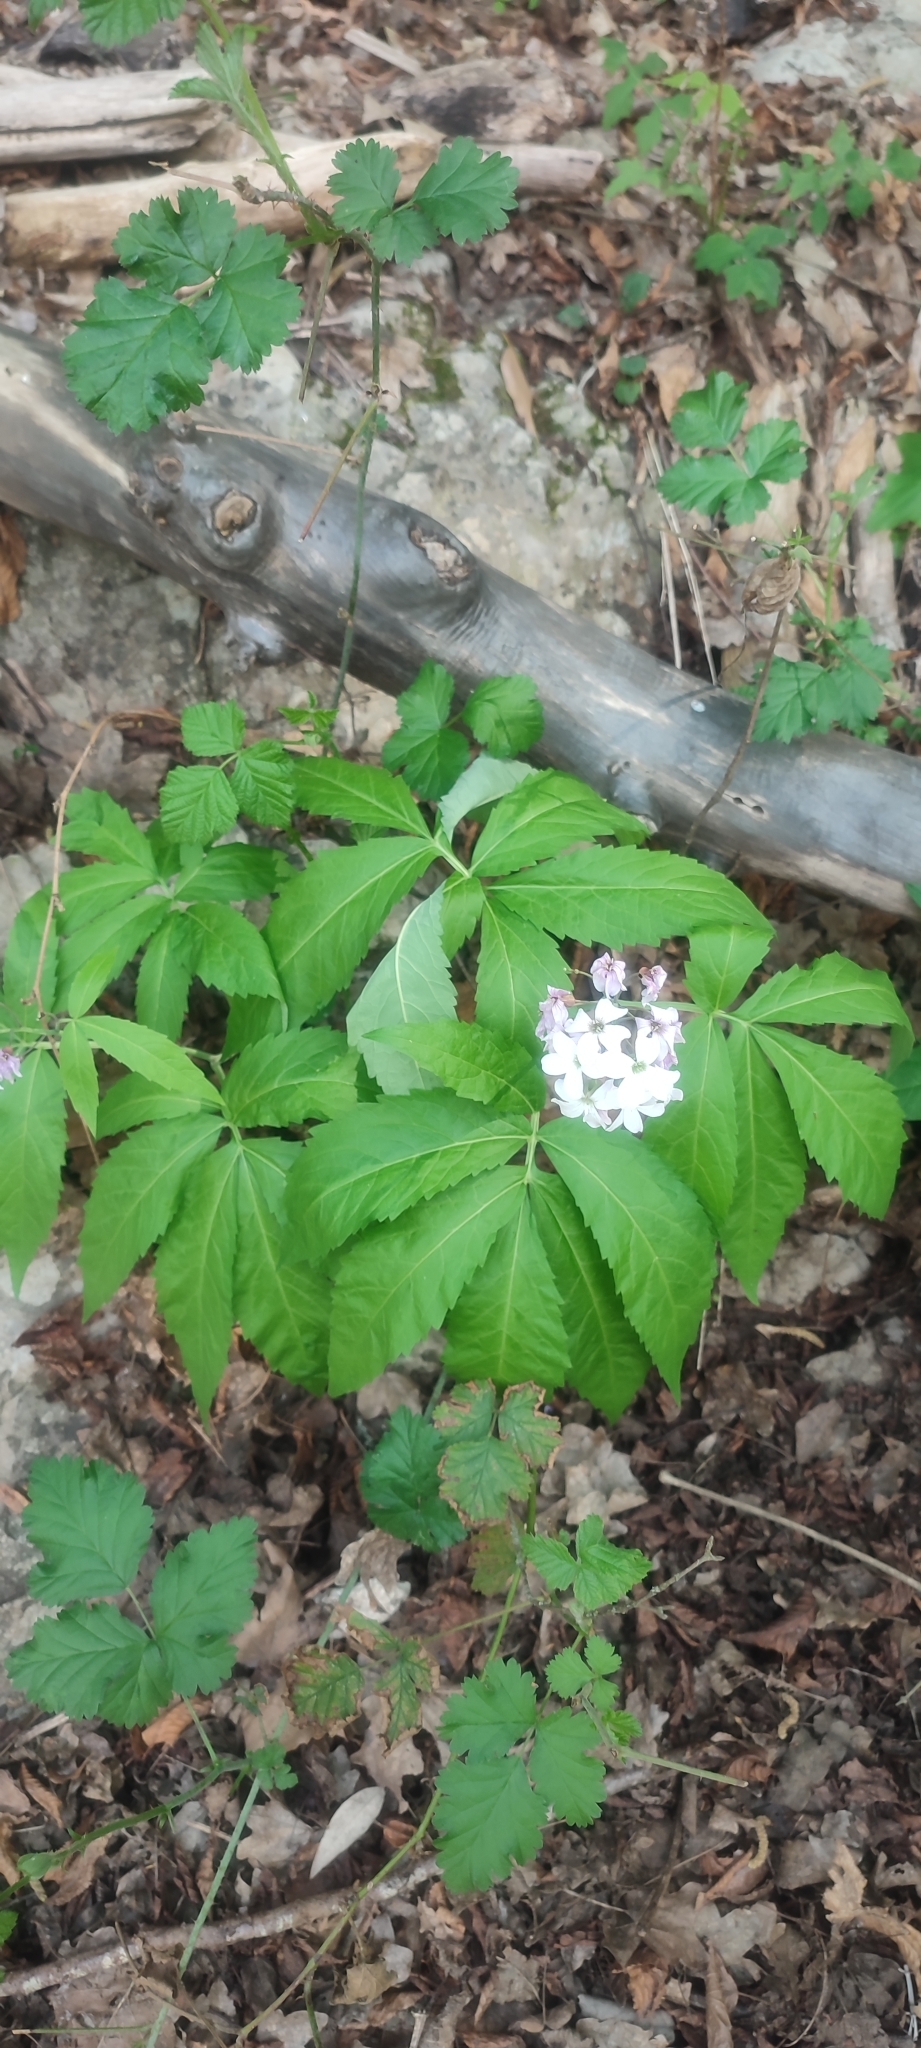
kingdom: Plantae
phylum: Tracheophyta
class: Magnoliopsida
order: Brassicales
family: Brassicaceae
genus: Cardamine
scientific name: Cardamine heptaphylla
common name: Pinnate coralroot
